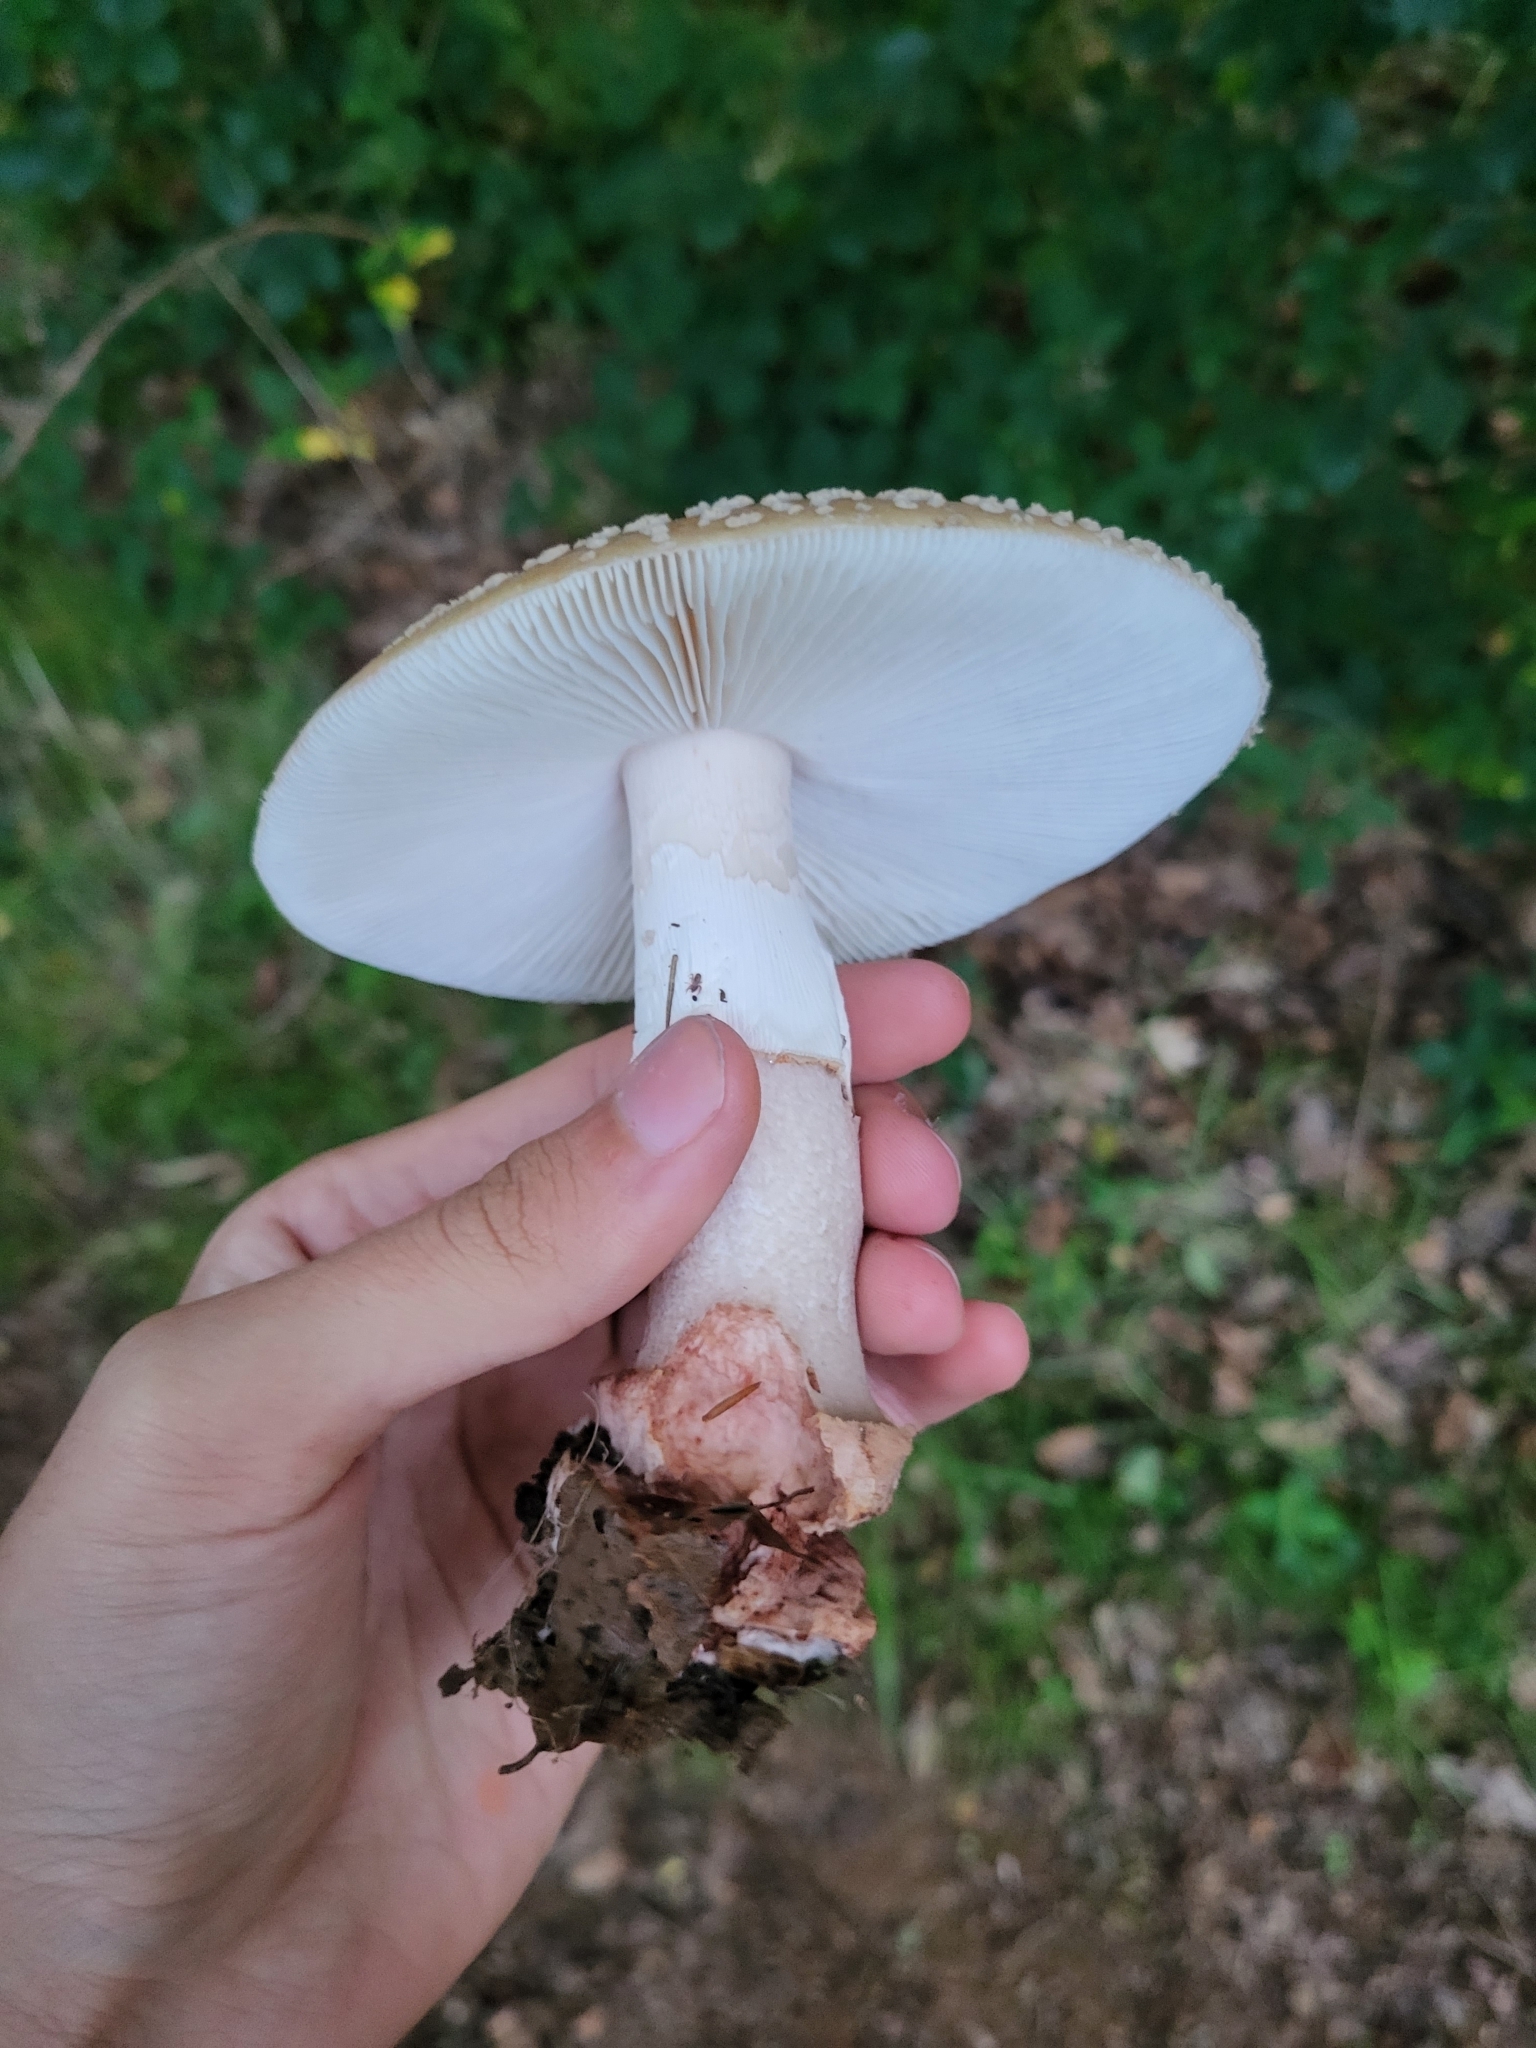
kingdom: Fungi
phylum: Basidiomycota
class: Agaricomycetes
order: Agaricales
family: Amanitaceae
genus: Amanita
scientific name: Amanita rubescens
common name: Blusher
